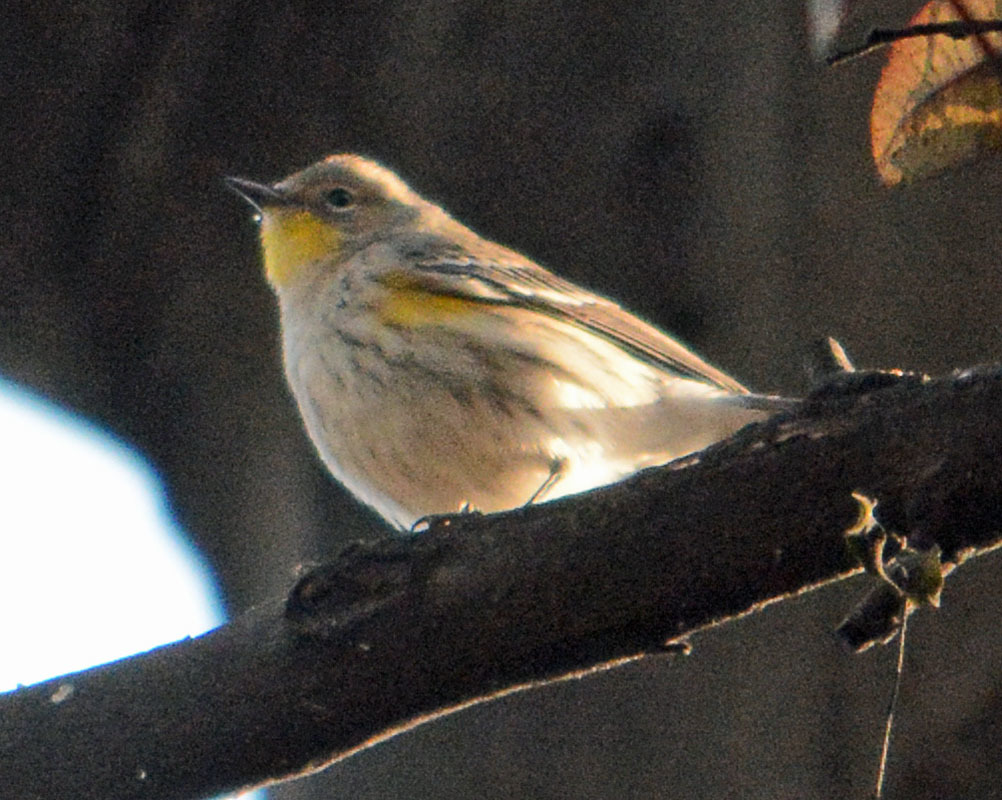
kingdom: Animalia
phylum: Chordata
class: Aves
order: Passeriformes
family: Parulidae
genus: Setophaga
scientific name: Setophaga coronata
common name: Myrtle warbler
